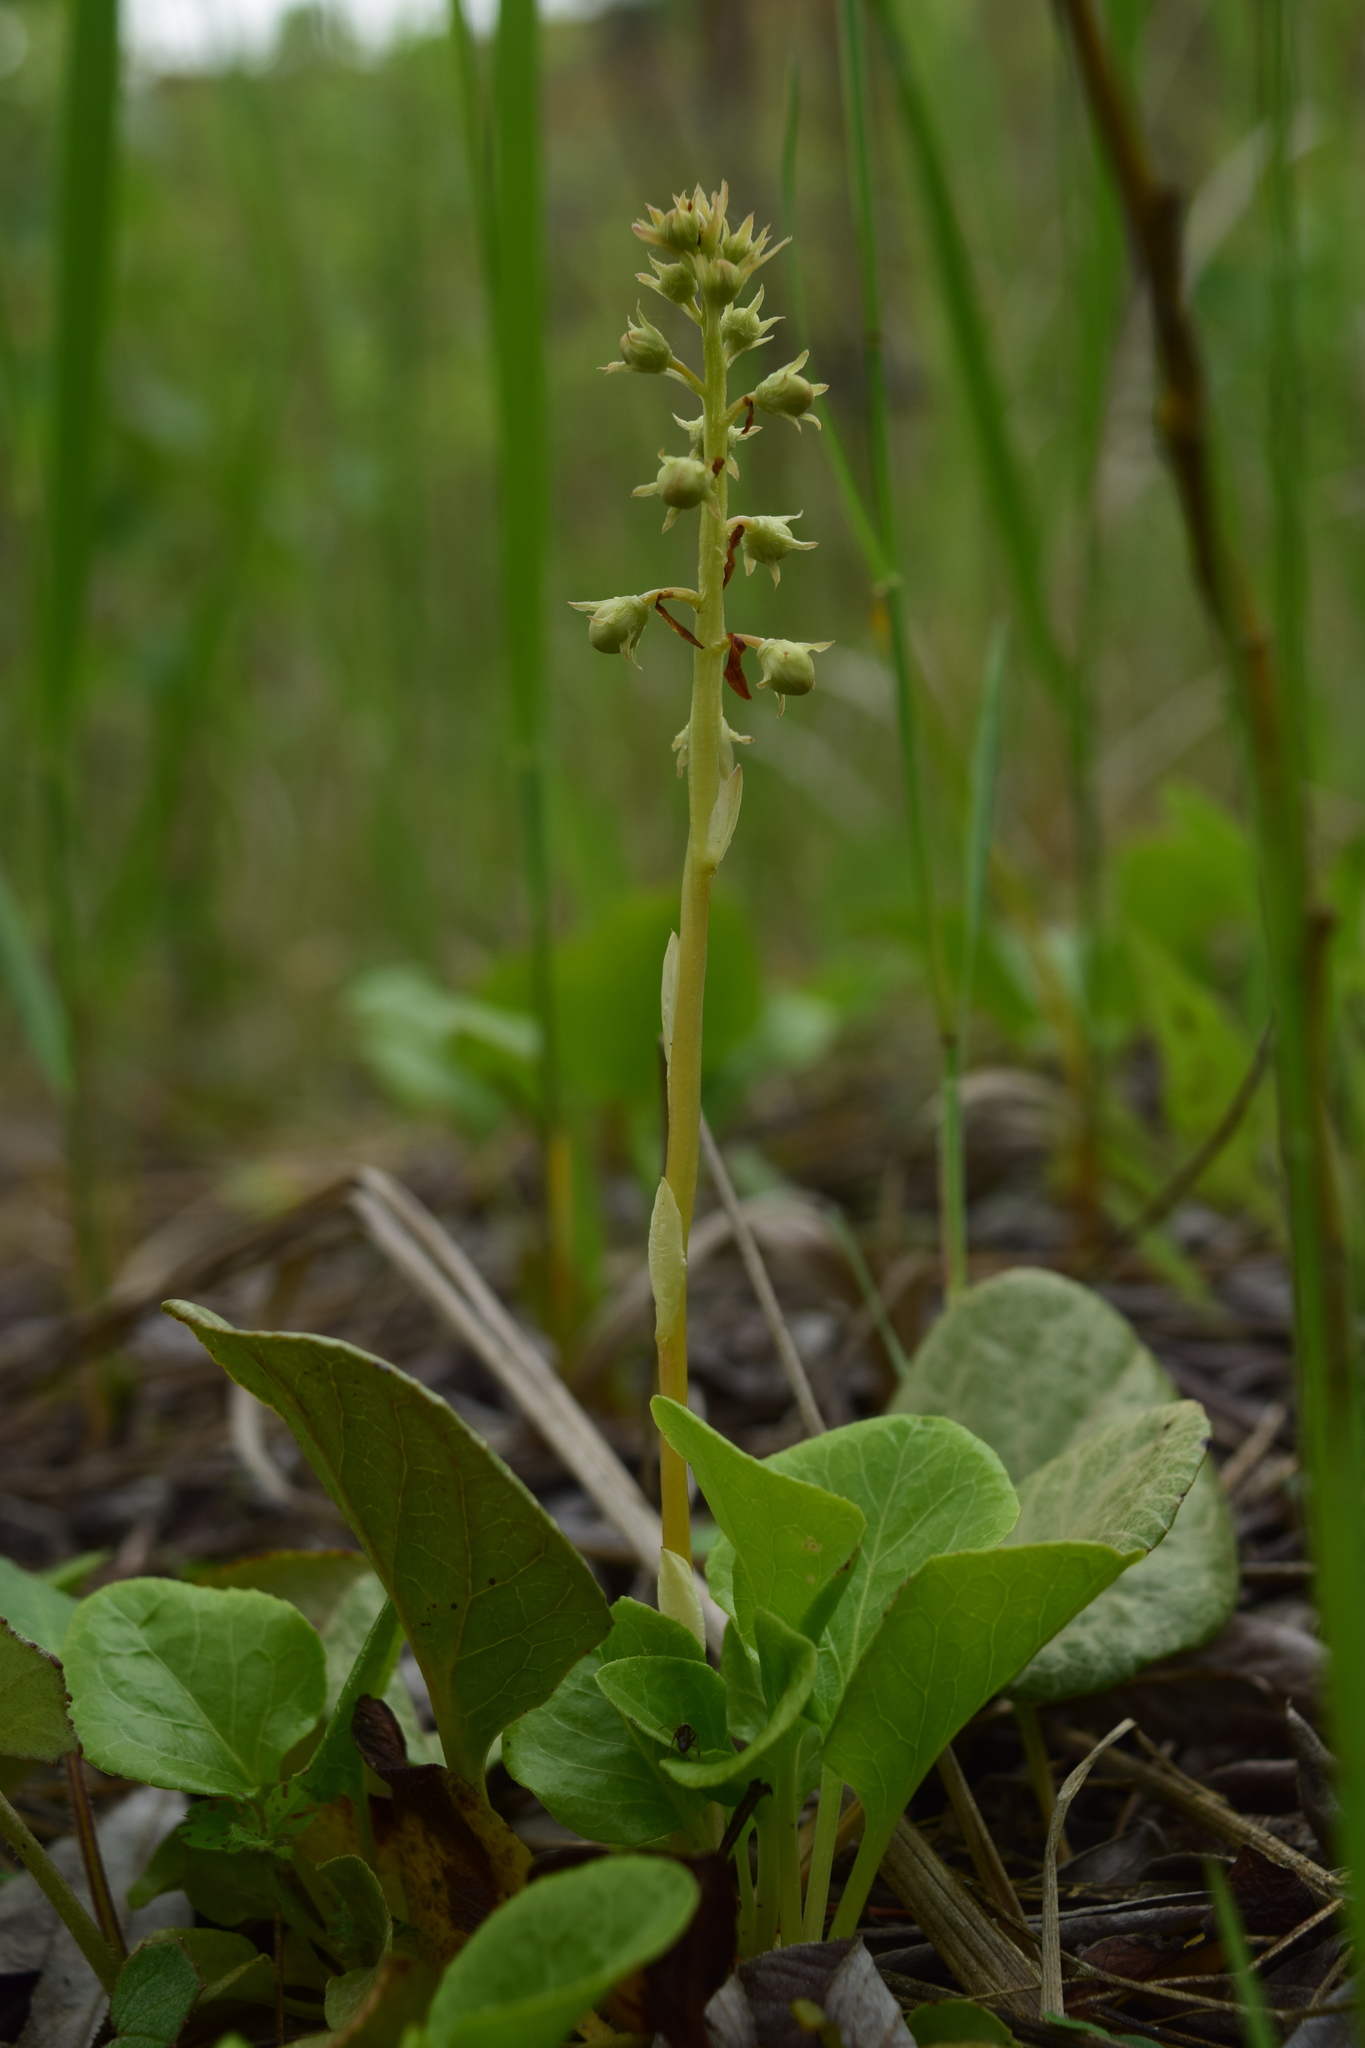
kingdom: Plantae
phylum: Tracheophyta
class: Magnoliopsida
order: Ericales
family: Ericaceae
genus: Pyrola
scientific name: Pyrola rotundifolia
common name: Round-leaved wintergreen
